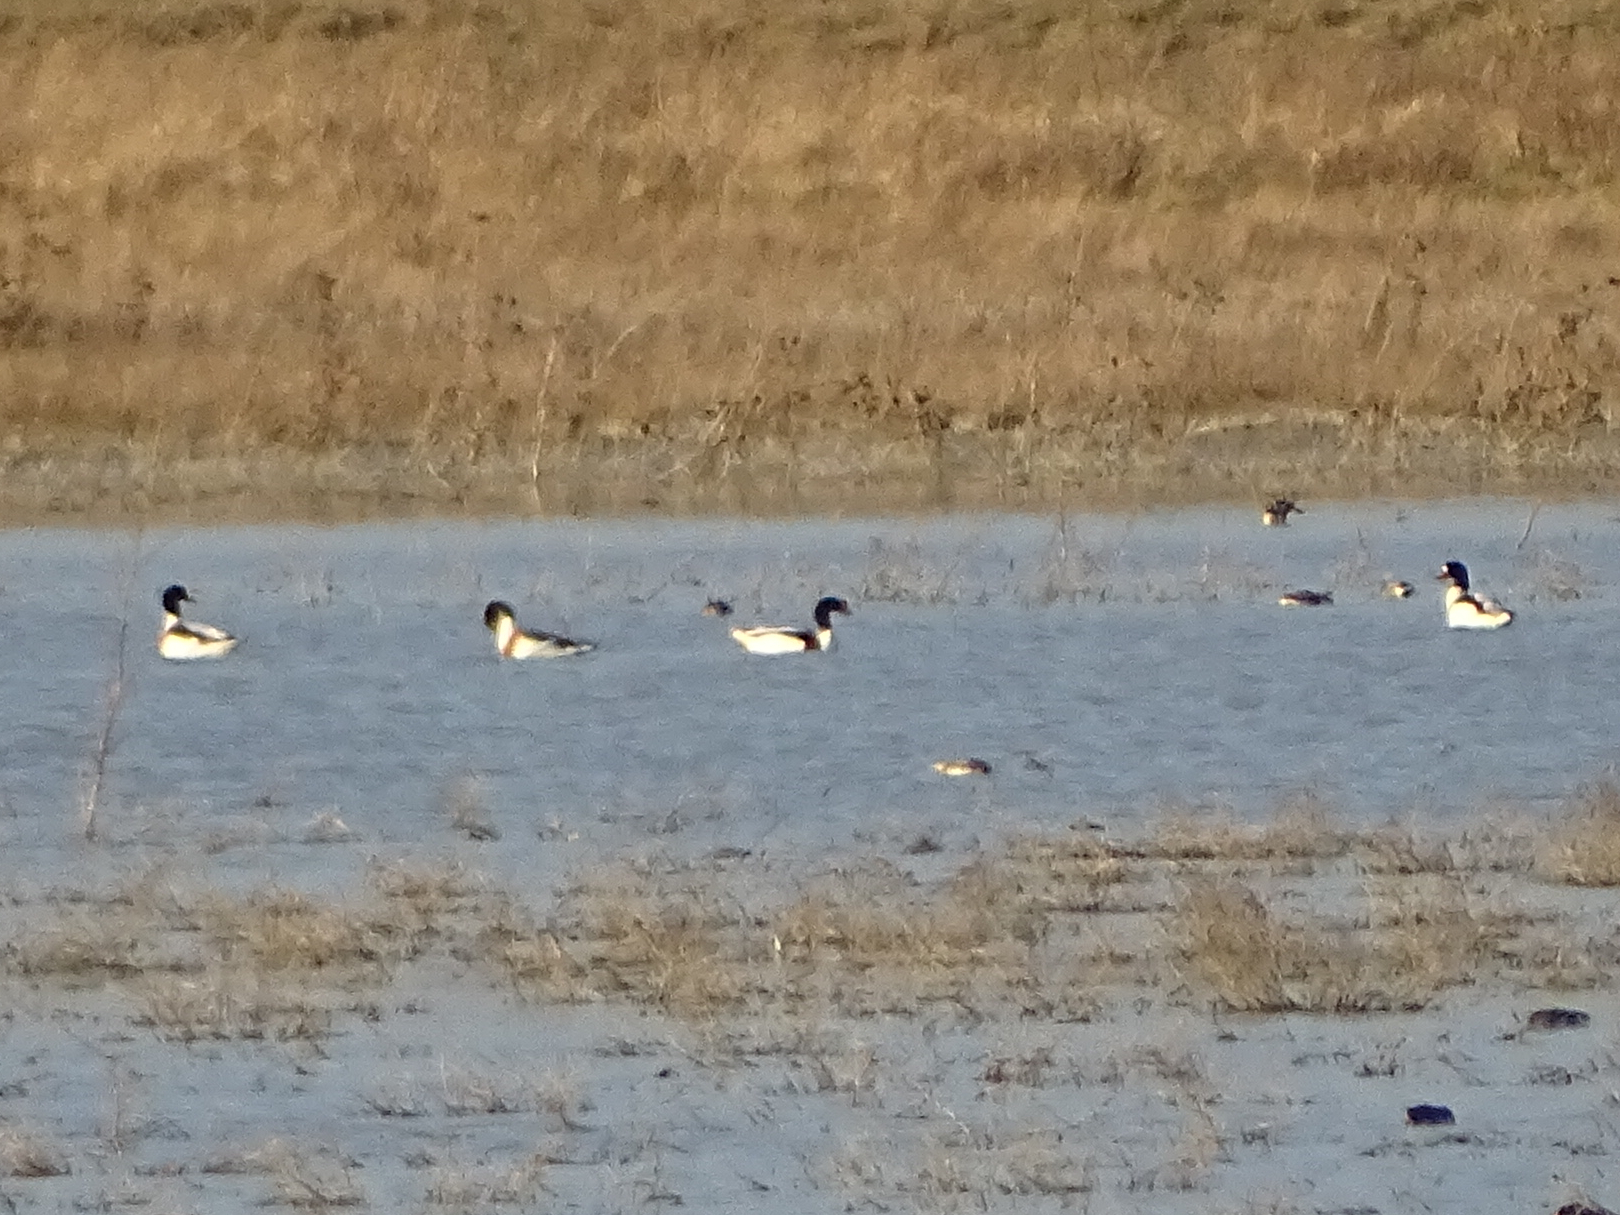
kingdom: Animalia
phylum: Chordata
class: Aves
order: Anseriformes
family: Anatidae
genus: Tadorna
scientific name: Tadorna tadorna
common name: Common shelduck
